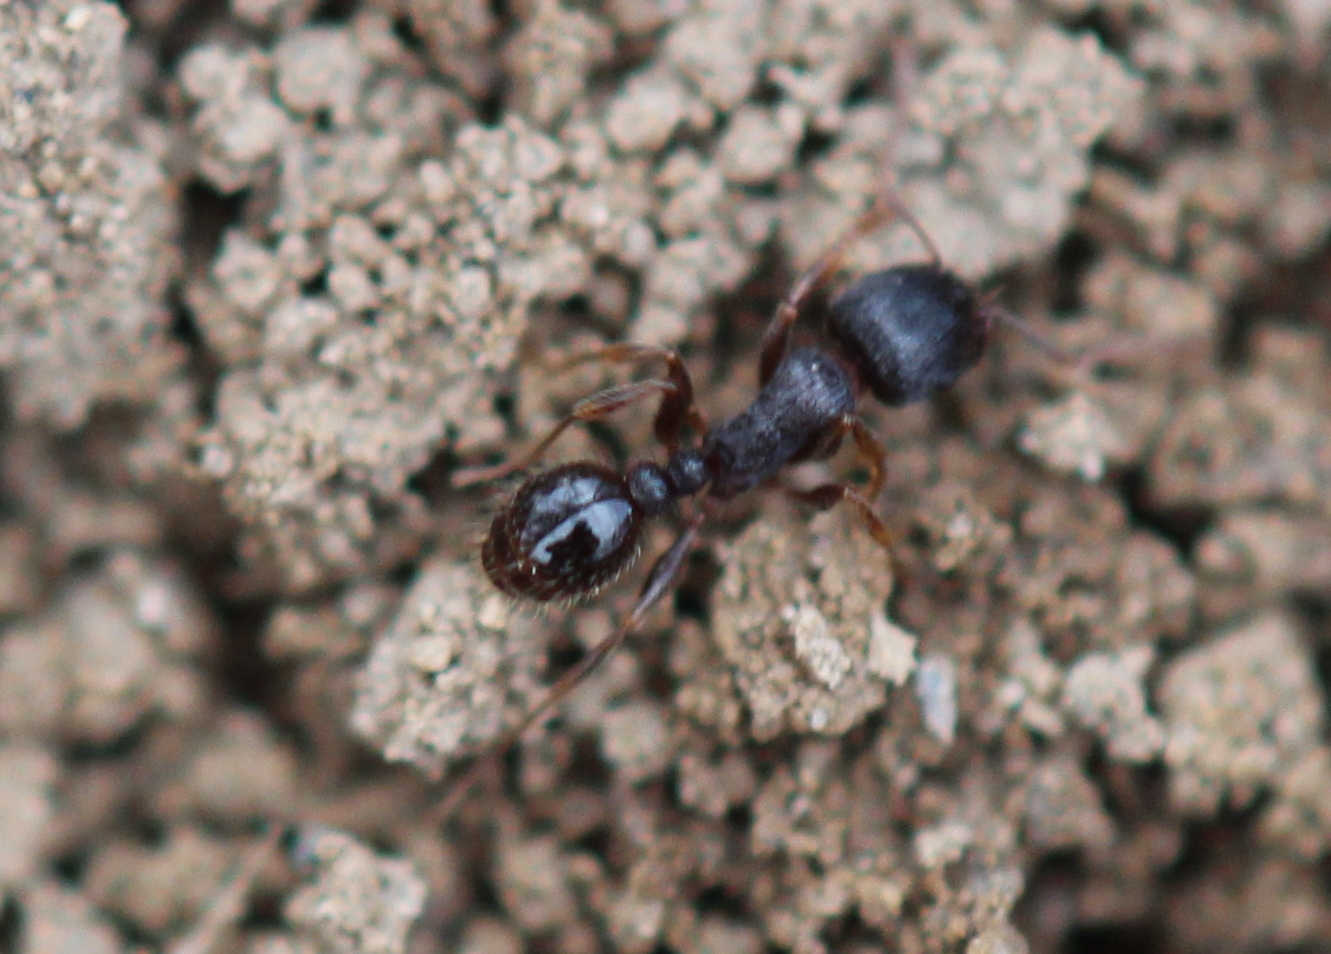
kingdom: Animalia
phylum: Arthropoda
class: Insecta
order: Hymenoptera
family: Formicidae
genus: Tetramorium
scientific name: Tetramorium immigrans
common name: Pavement ant
